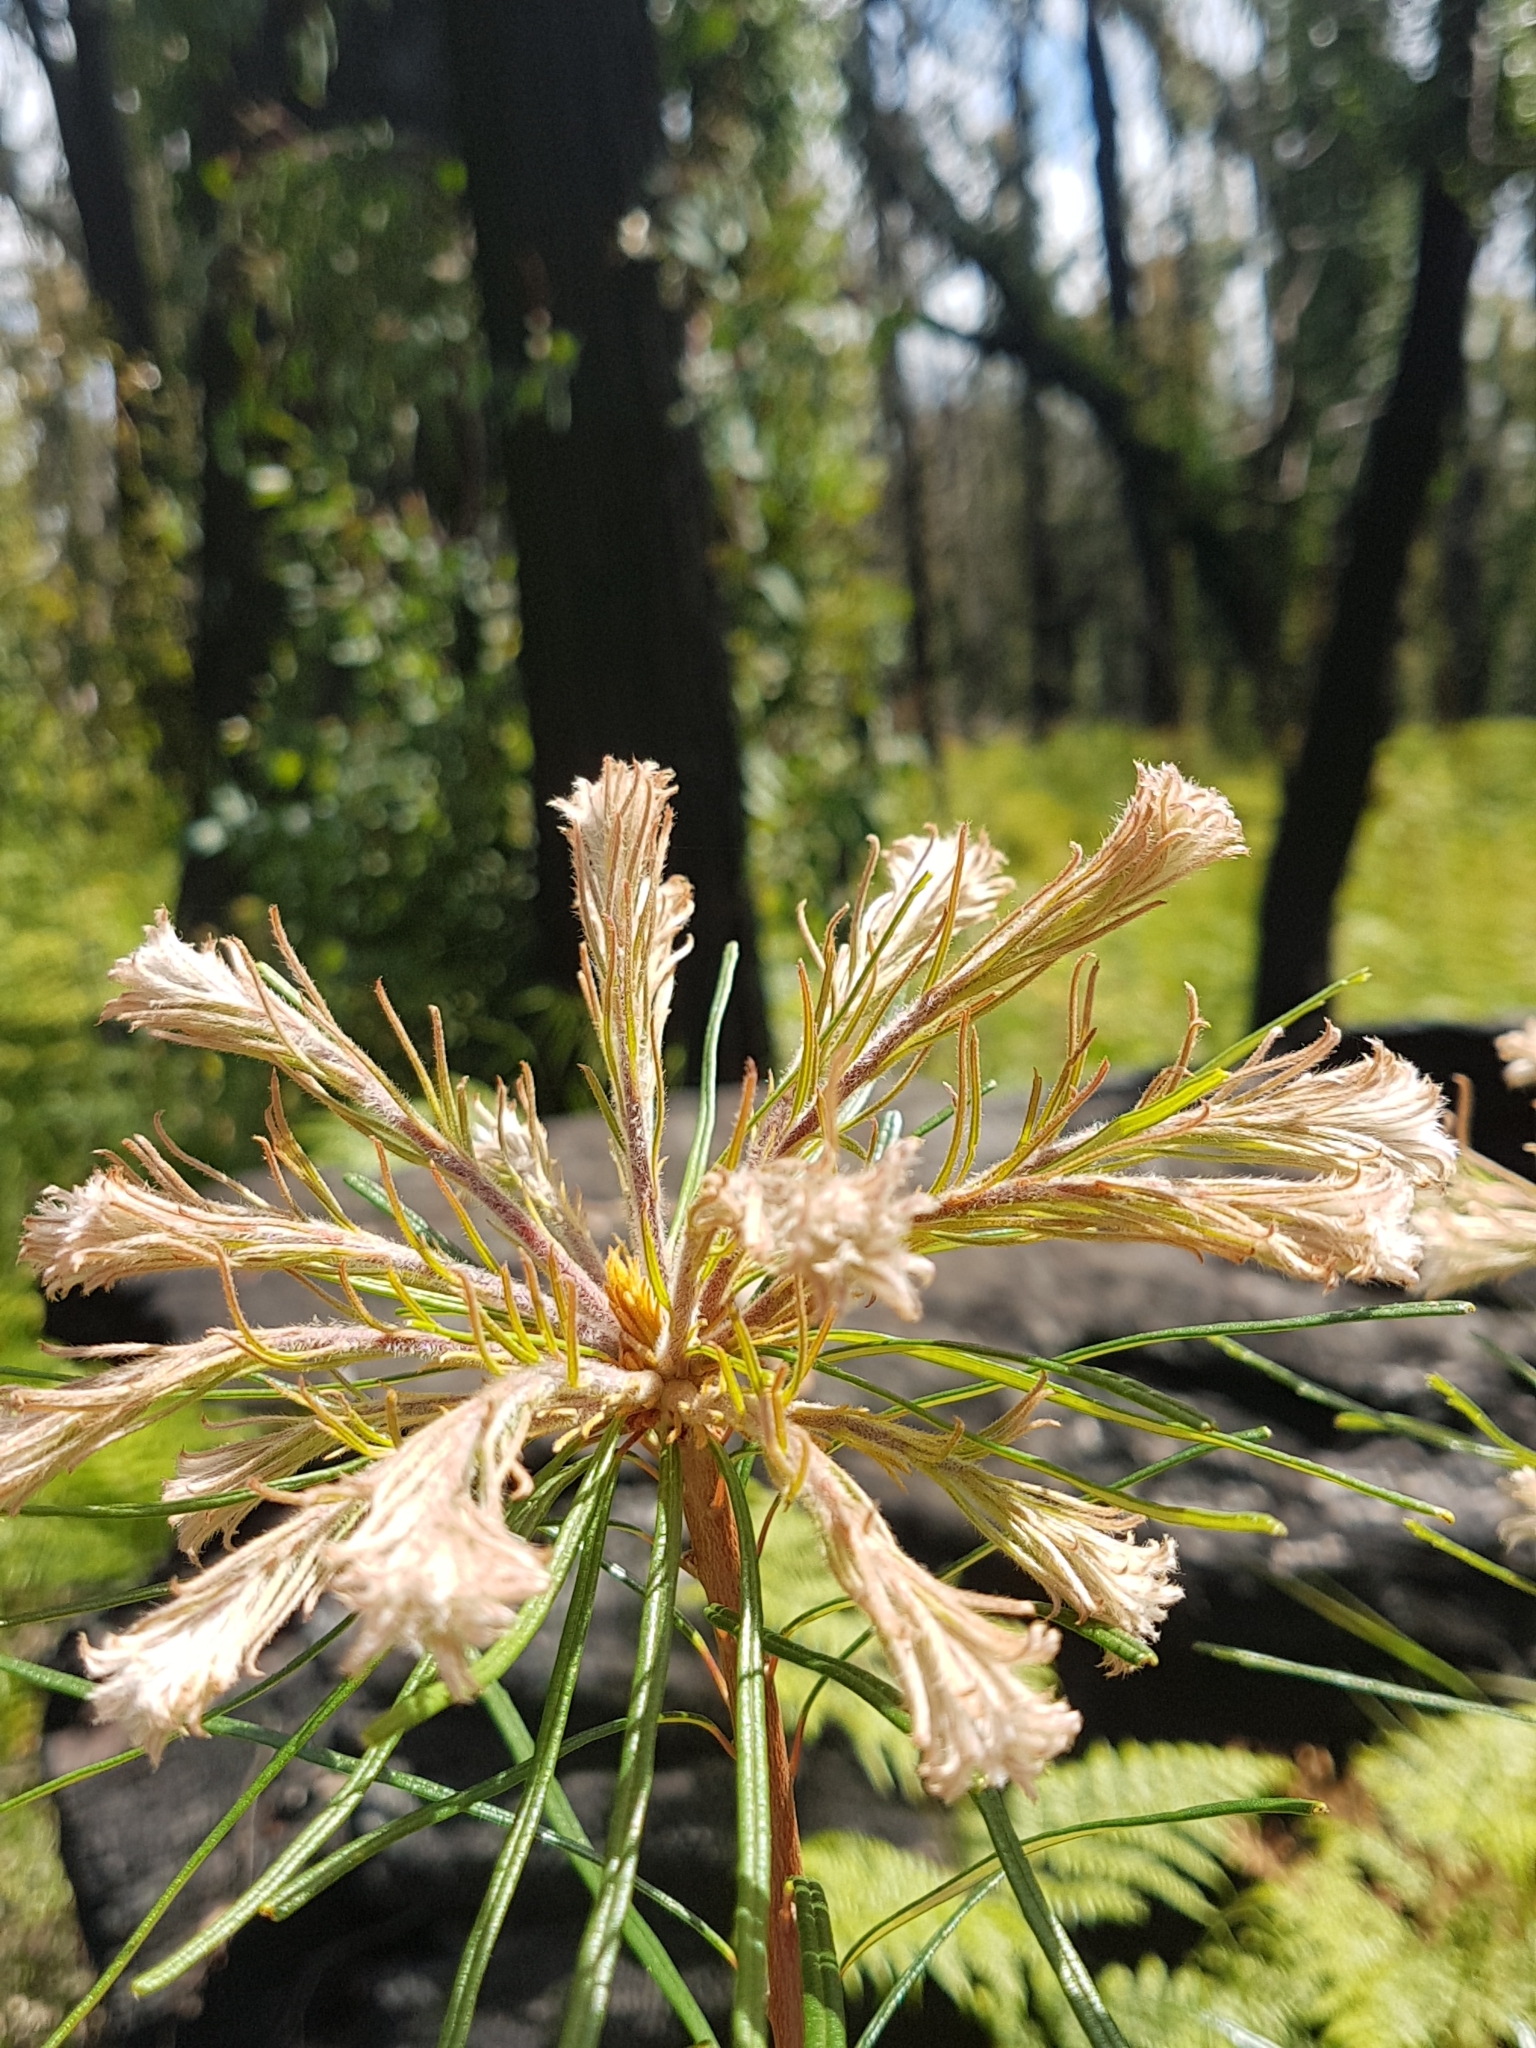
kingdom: Plantae
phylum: Tracheophyta
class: Magnoliopsida
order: Proteales
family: Proteaceae
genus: Banksia
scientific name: Banksia spinulosa
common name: Hairpin banksia
